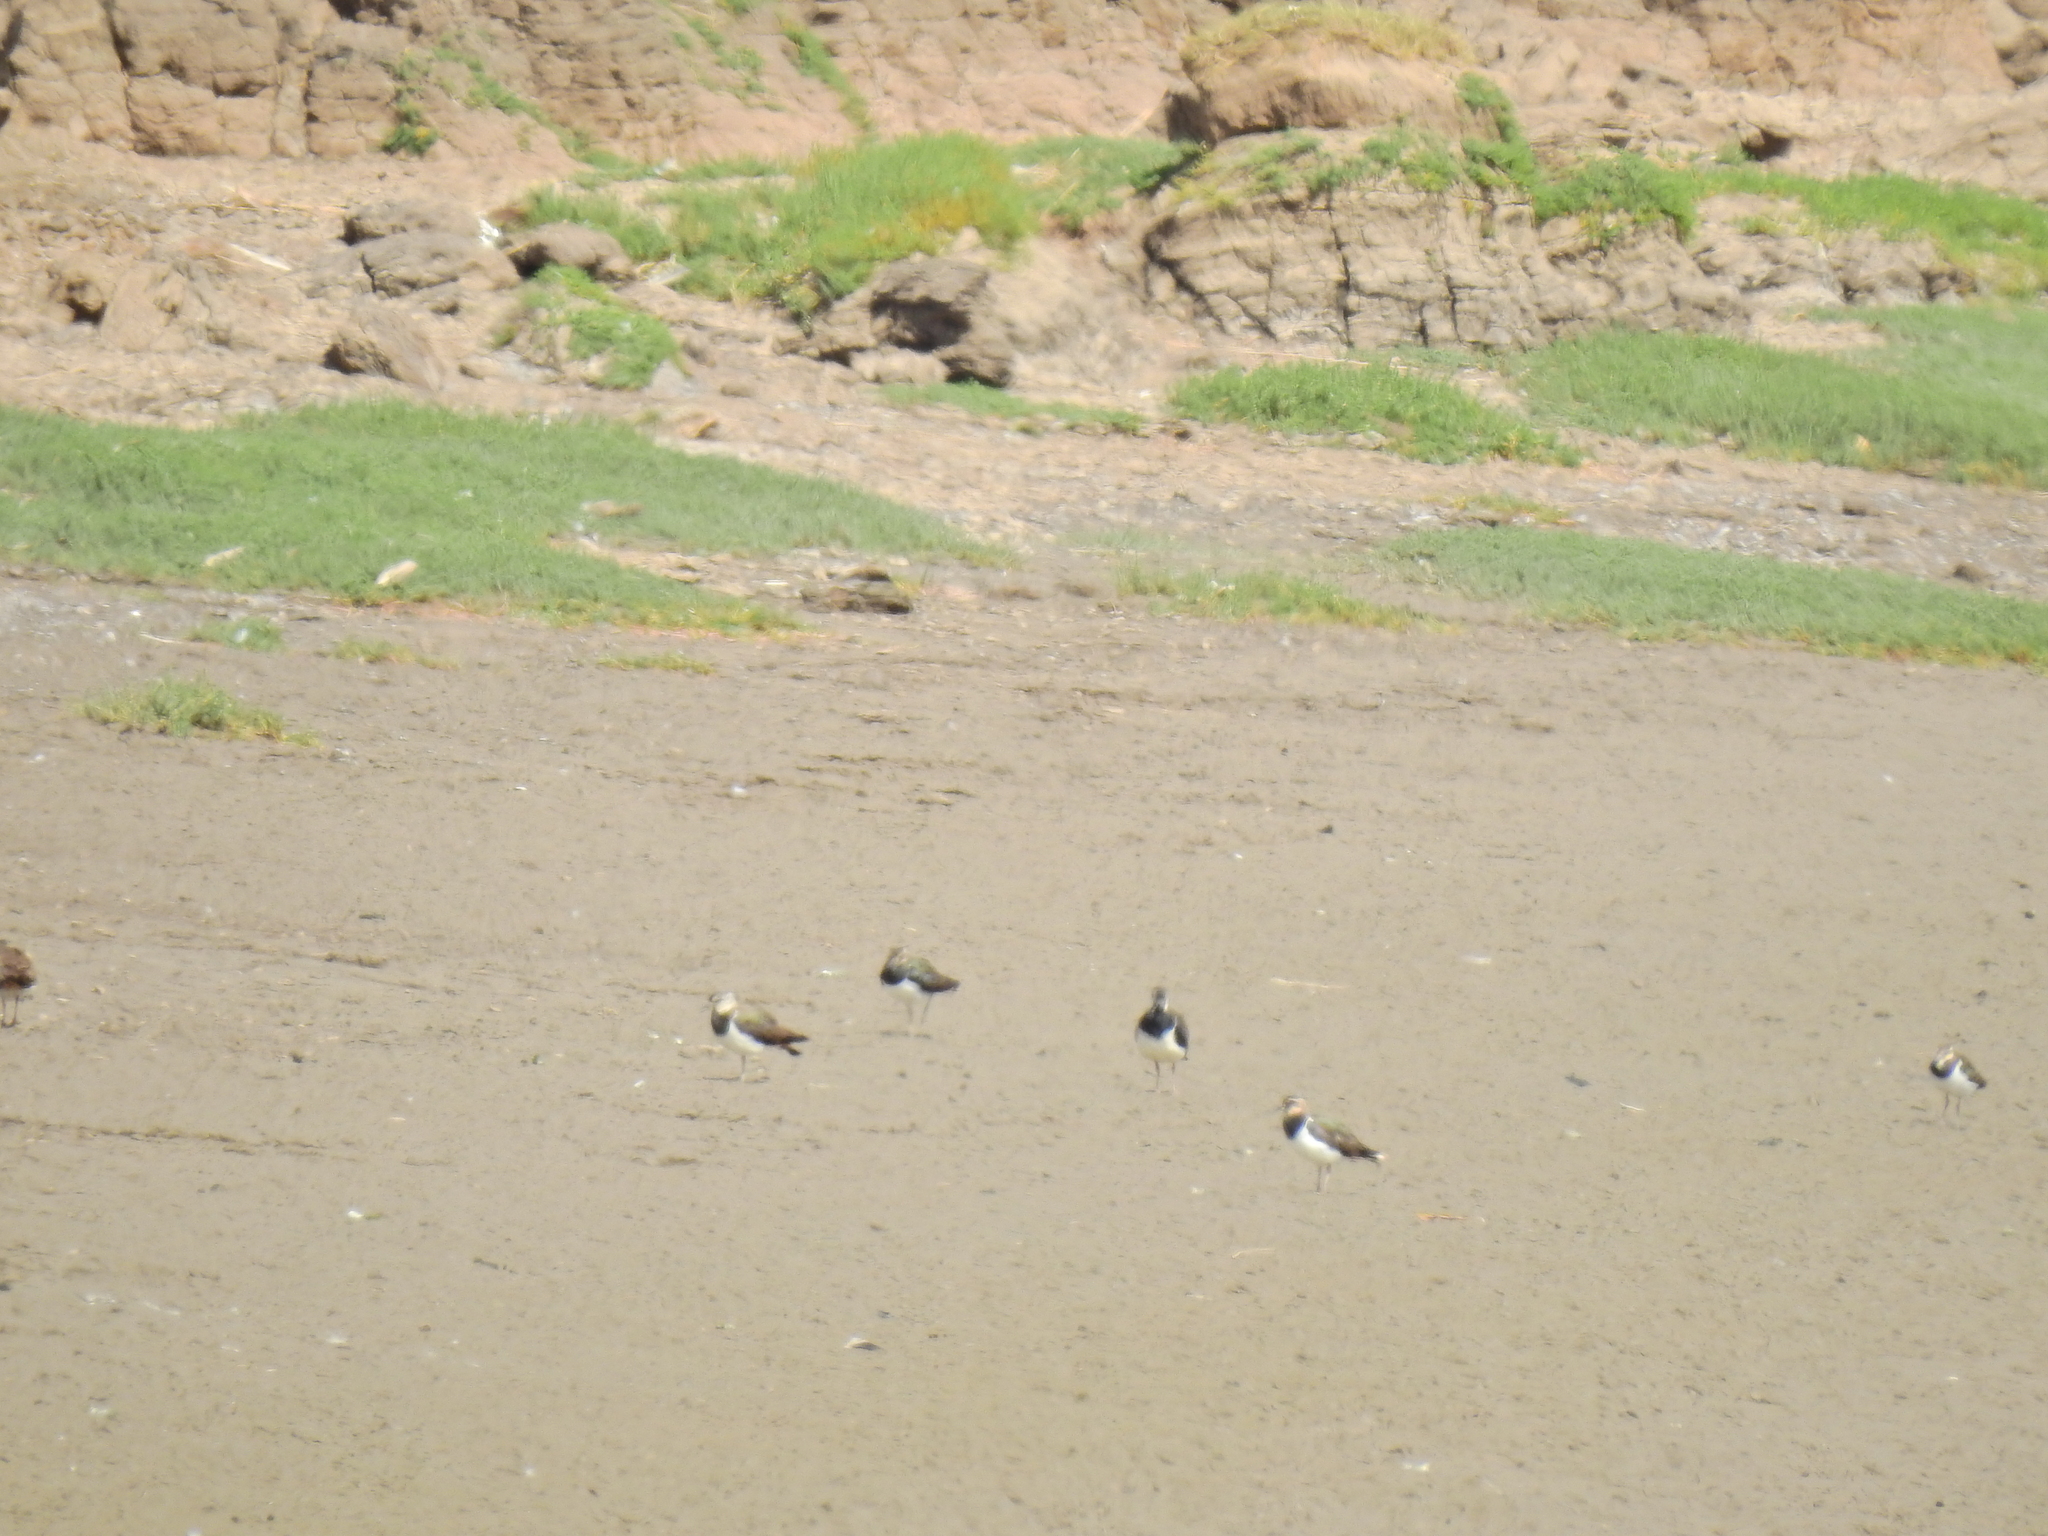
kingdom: Animalia
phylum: Chordata
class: Aves
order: Charadriiformes
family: Charadriidae
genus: Vanellus
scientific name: Vanellus vanellus
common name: Northern lapwing
